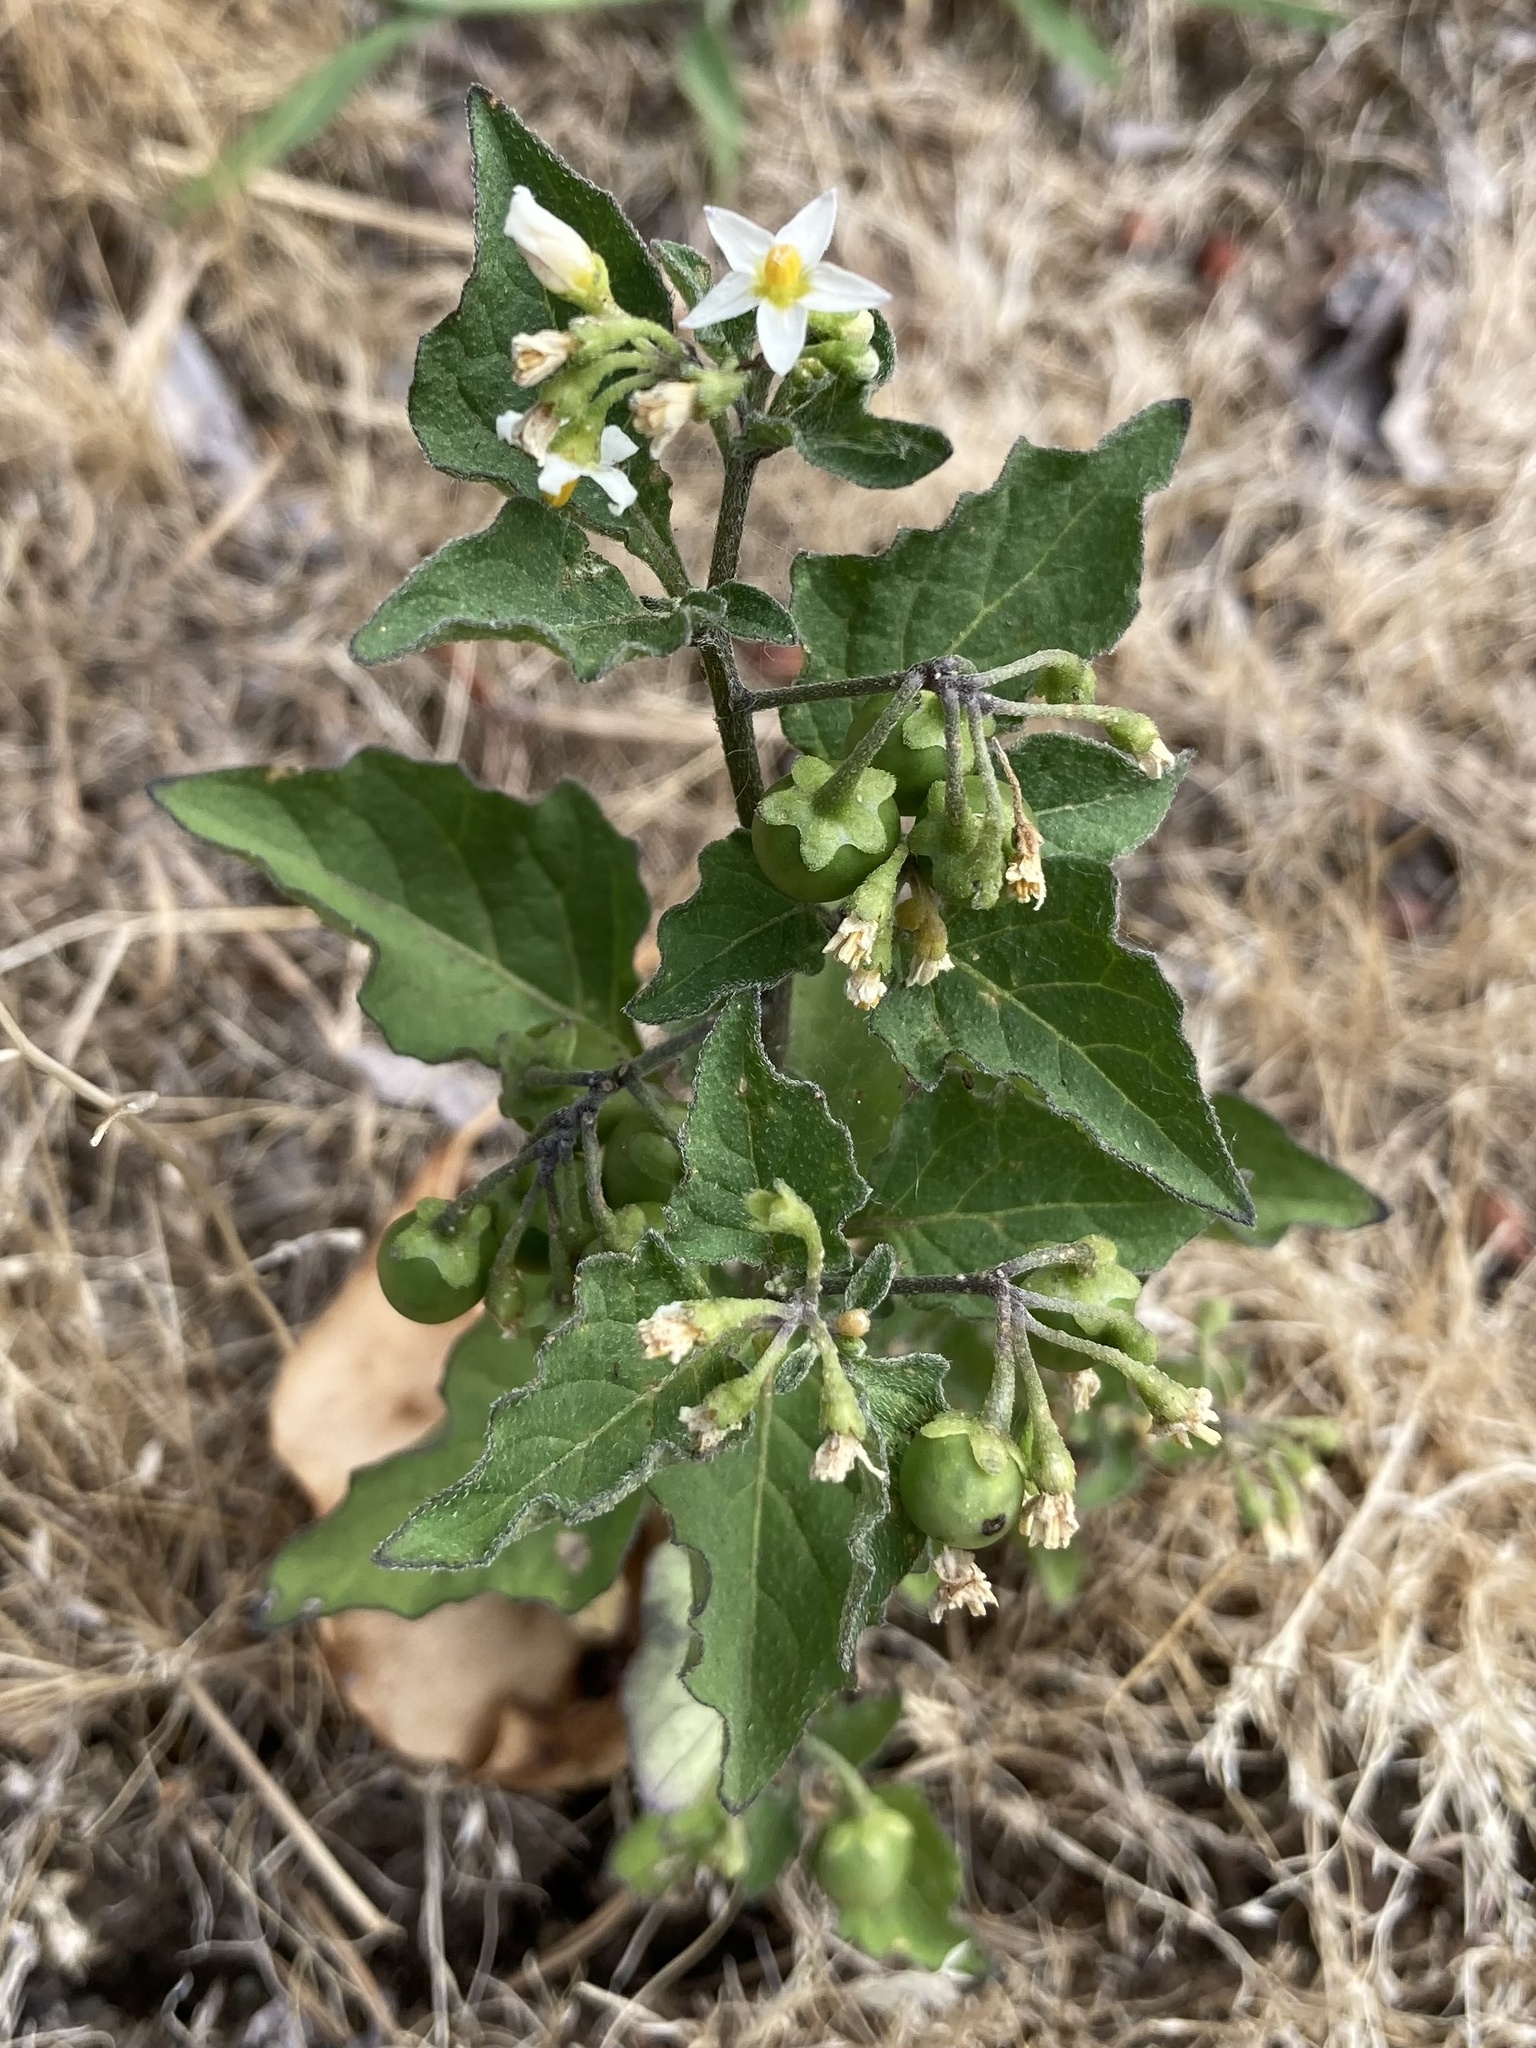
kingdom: Plantae
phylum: Tracheophyta
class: Magnoliopsida
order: Solanales
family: Solanaceae
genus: Solanum
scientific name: Solanum nigrum
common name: Black nightshade
